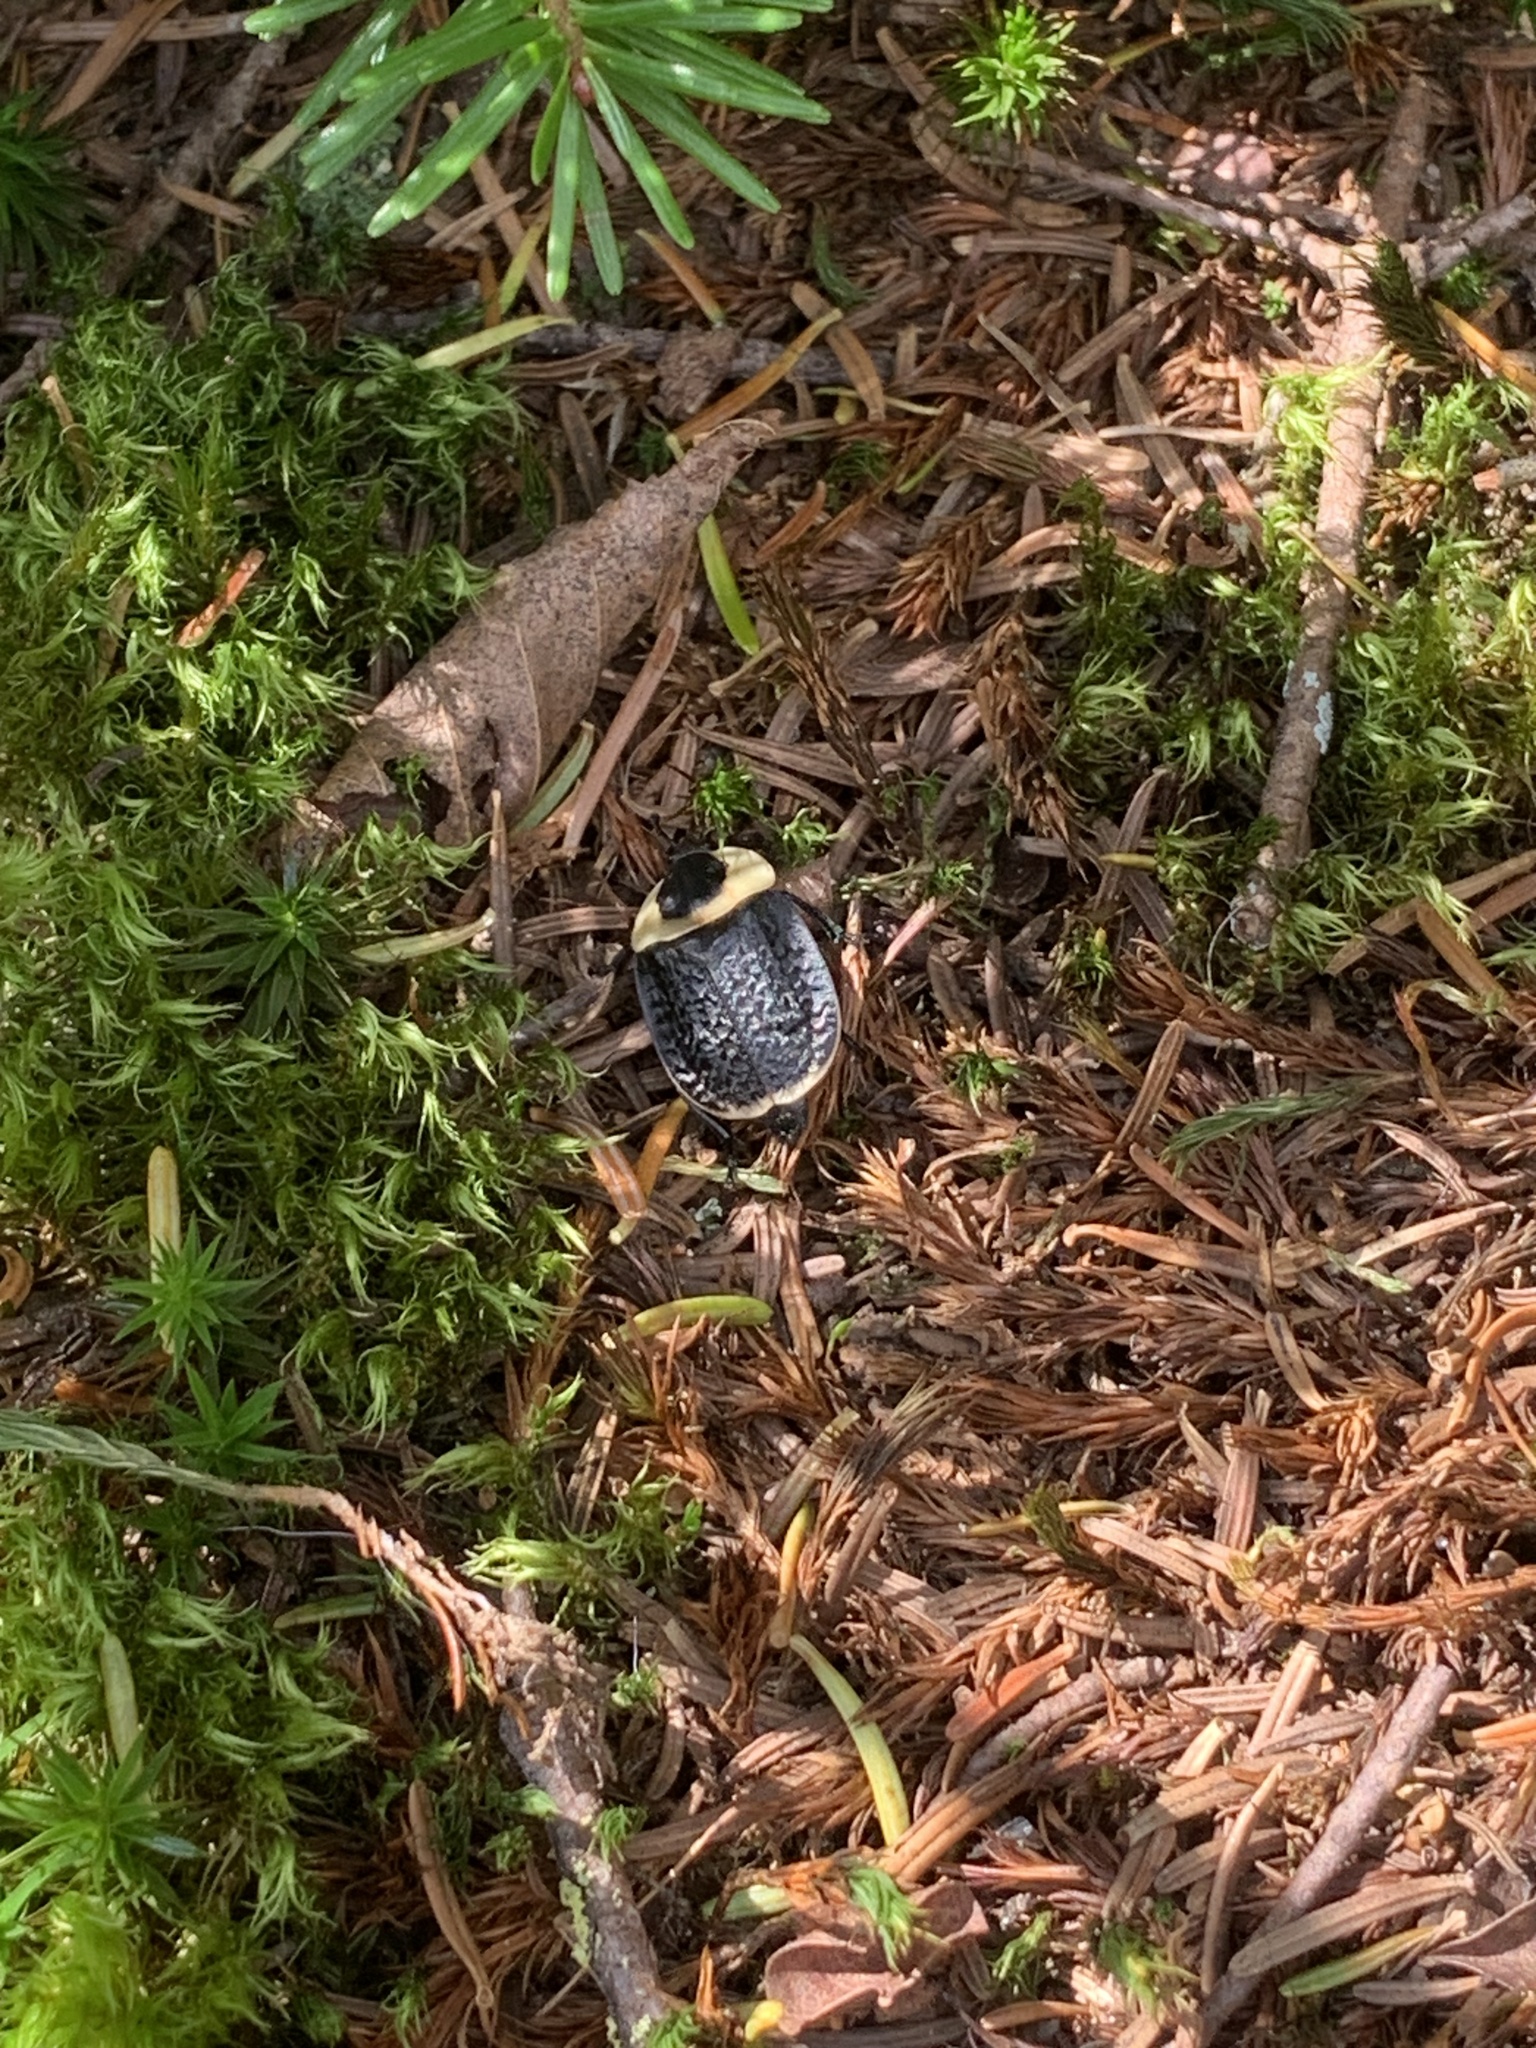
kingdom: Animalia
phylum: Arthropoda
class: Insecta
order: Coleoptera
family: Staphylinidae
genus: Necrophila
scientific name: Necrophila americana
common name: American carrion beetle
